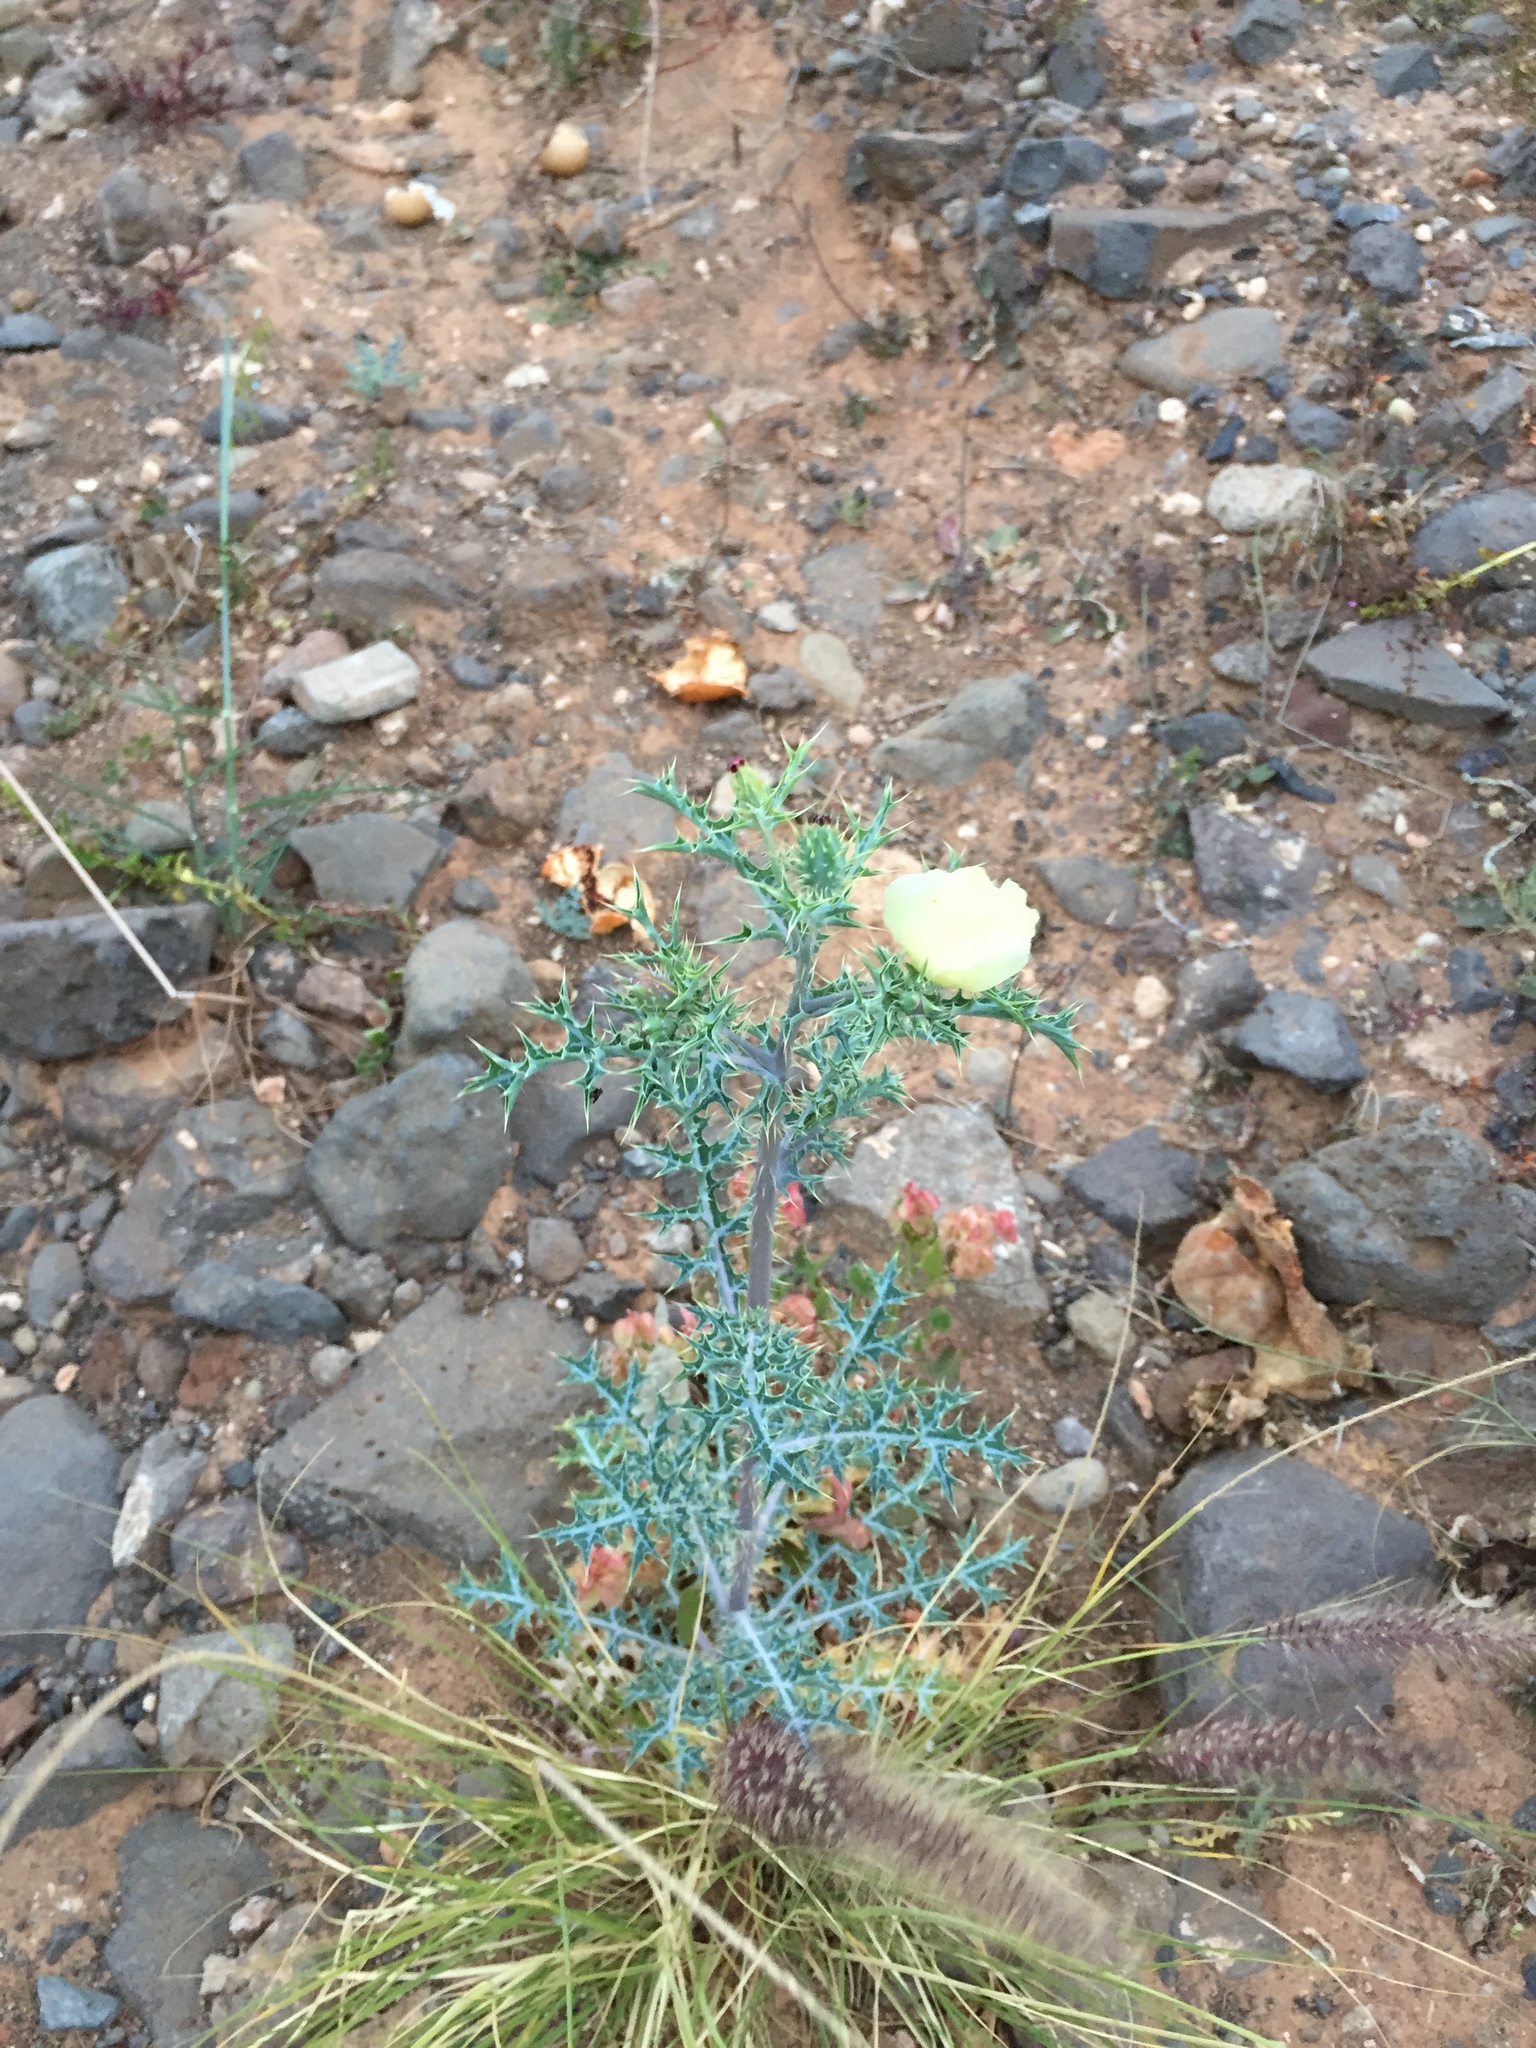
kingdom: Plantae
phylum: Tracheophyta
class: Magnoliopsida
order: Ranunculales
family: Papaveraceae
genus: Argemone
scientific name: Argemone ochroleuca
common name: White-flower mexican-poppy
